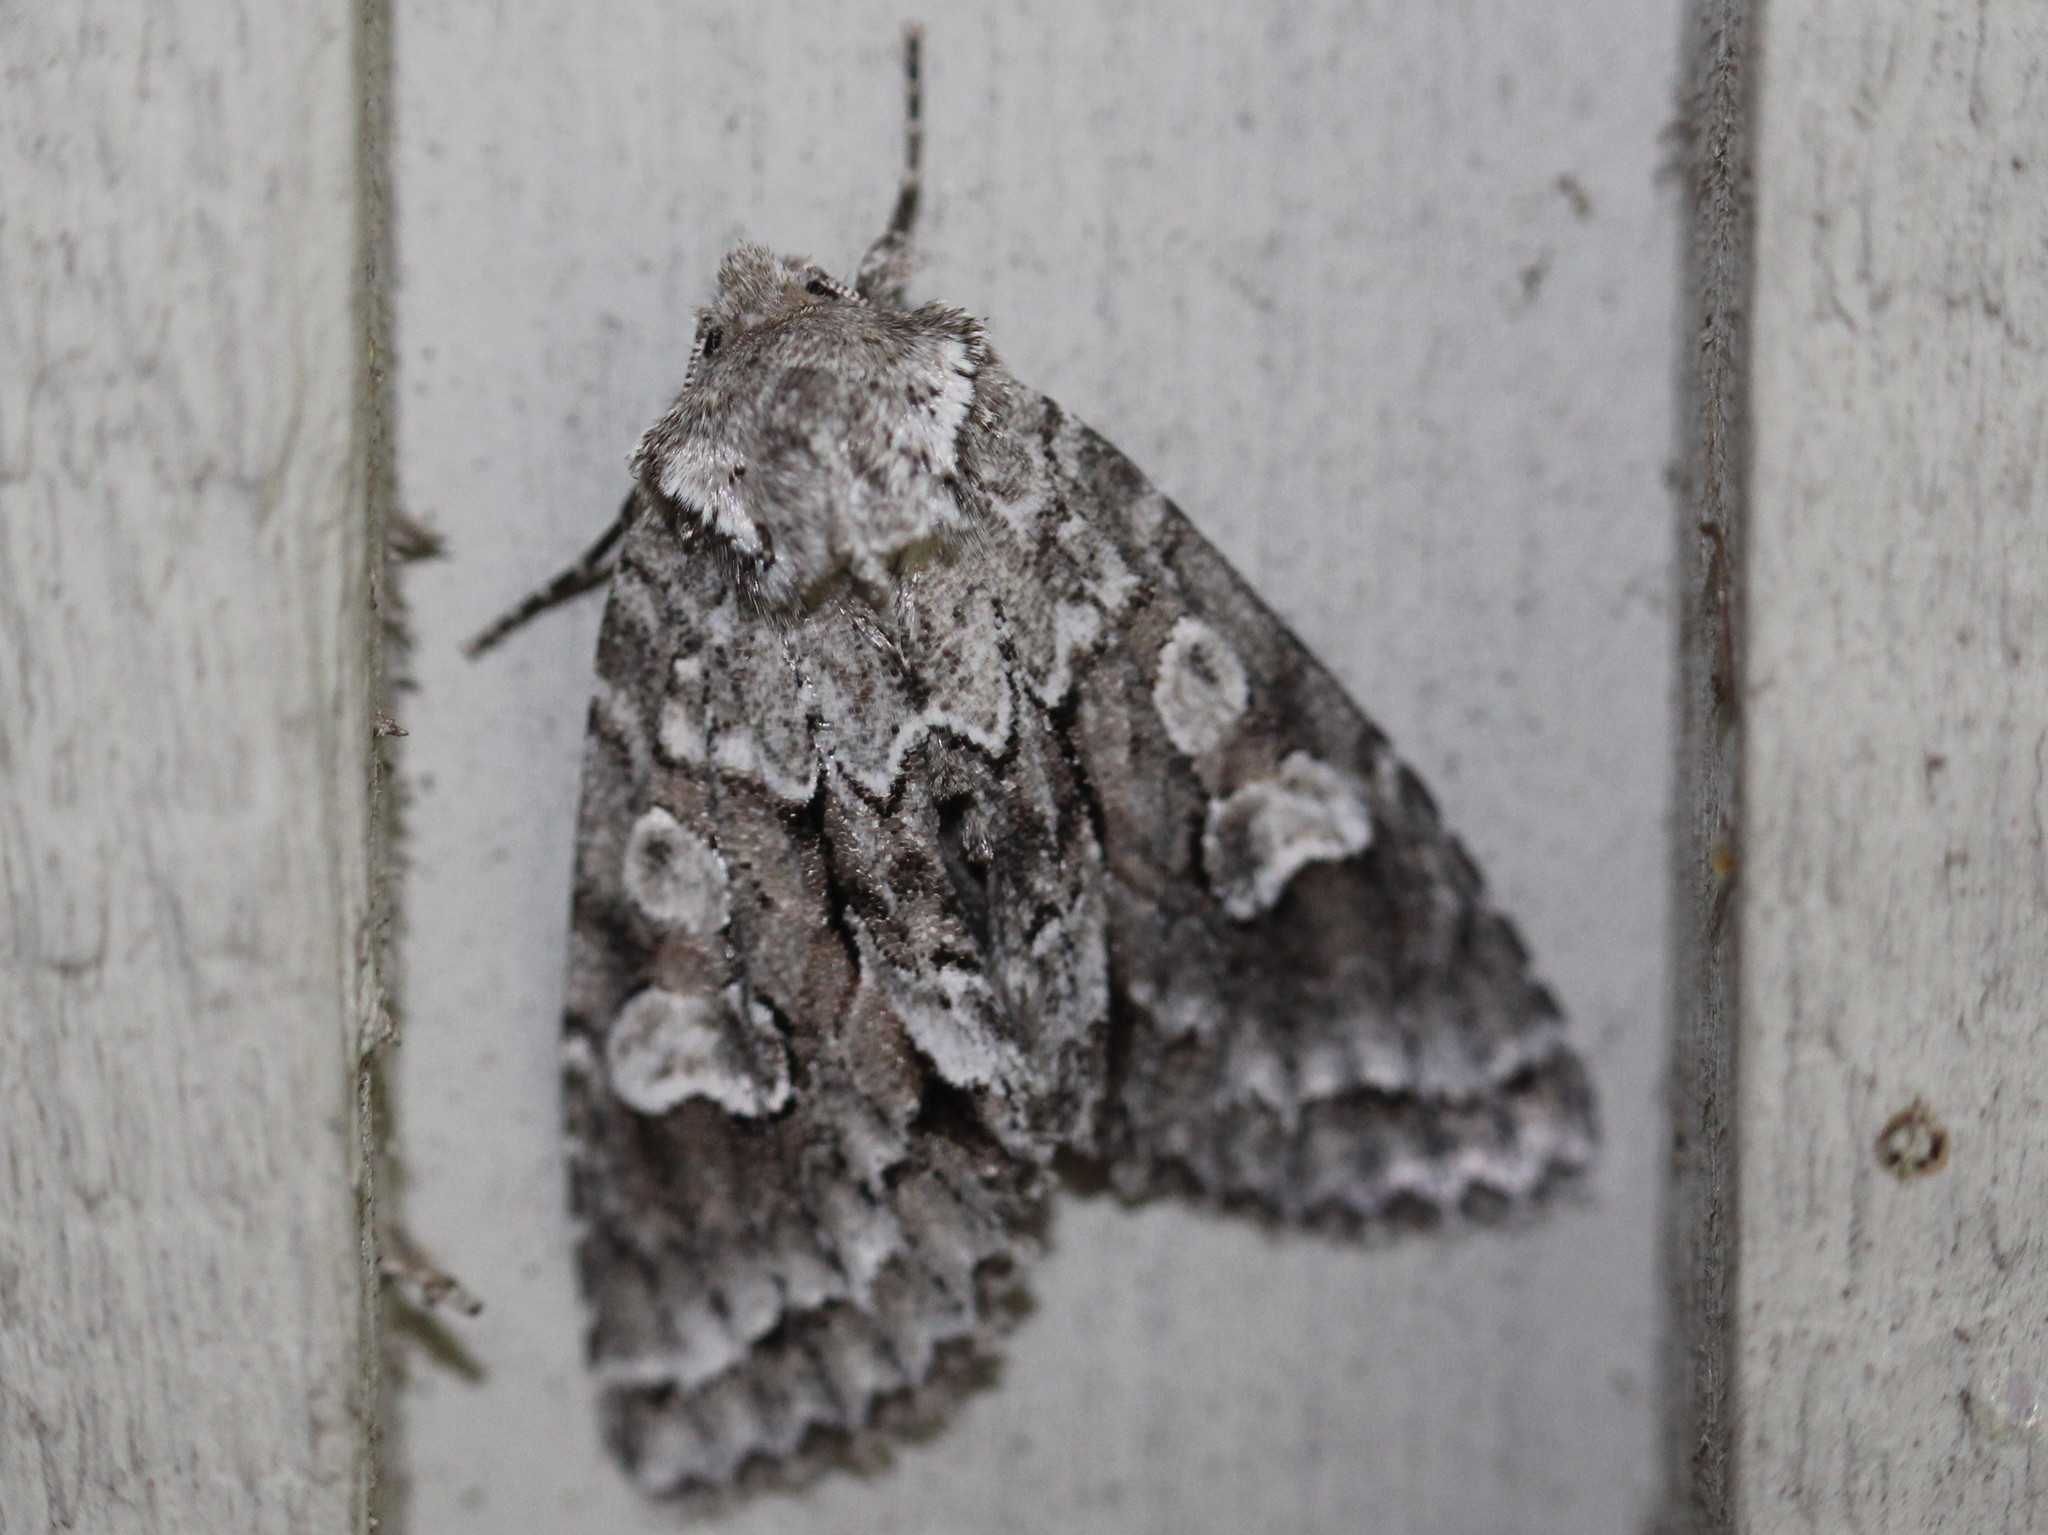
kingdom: Animalia
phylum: Arthropoda
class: Insecta
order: Lepidoptera
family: Noctuidae
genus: Xylotype
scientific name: Xylotype arcadia
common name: Acadian sallow
